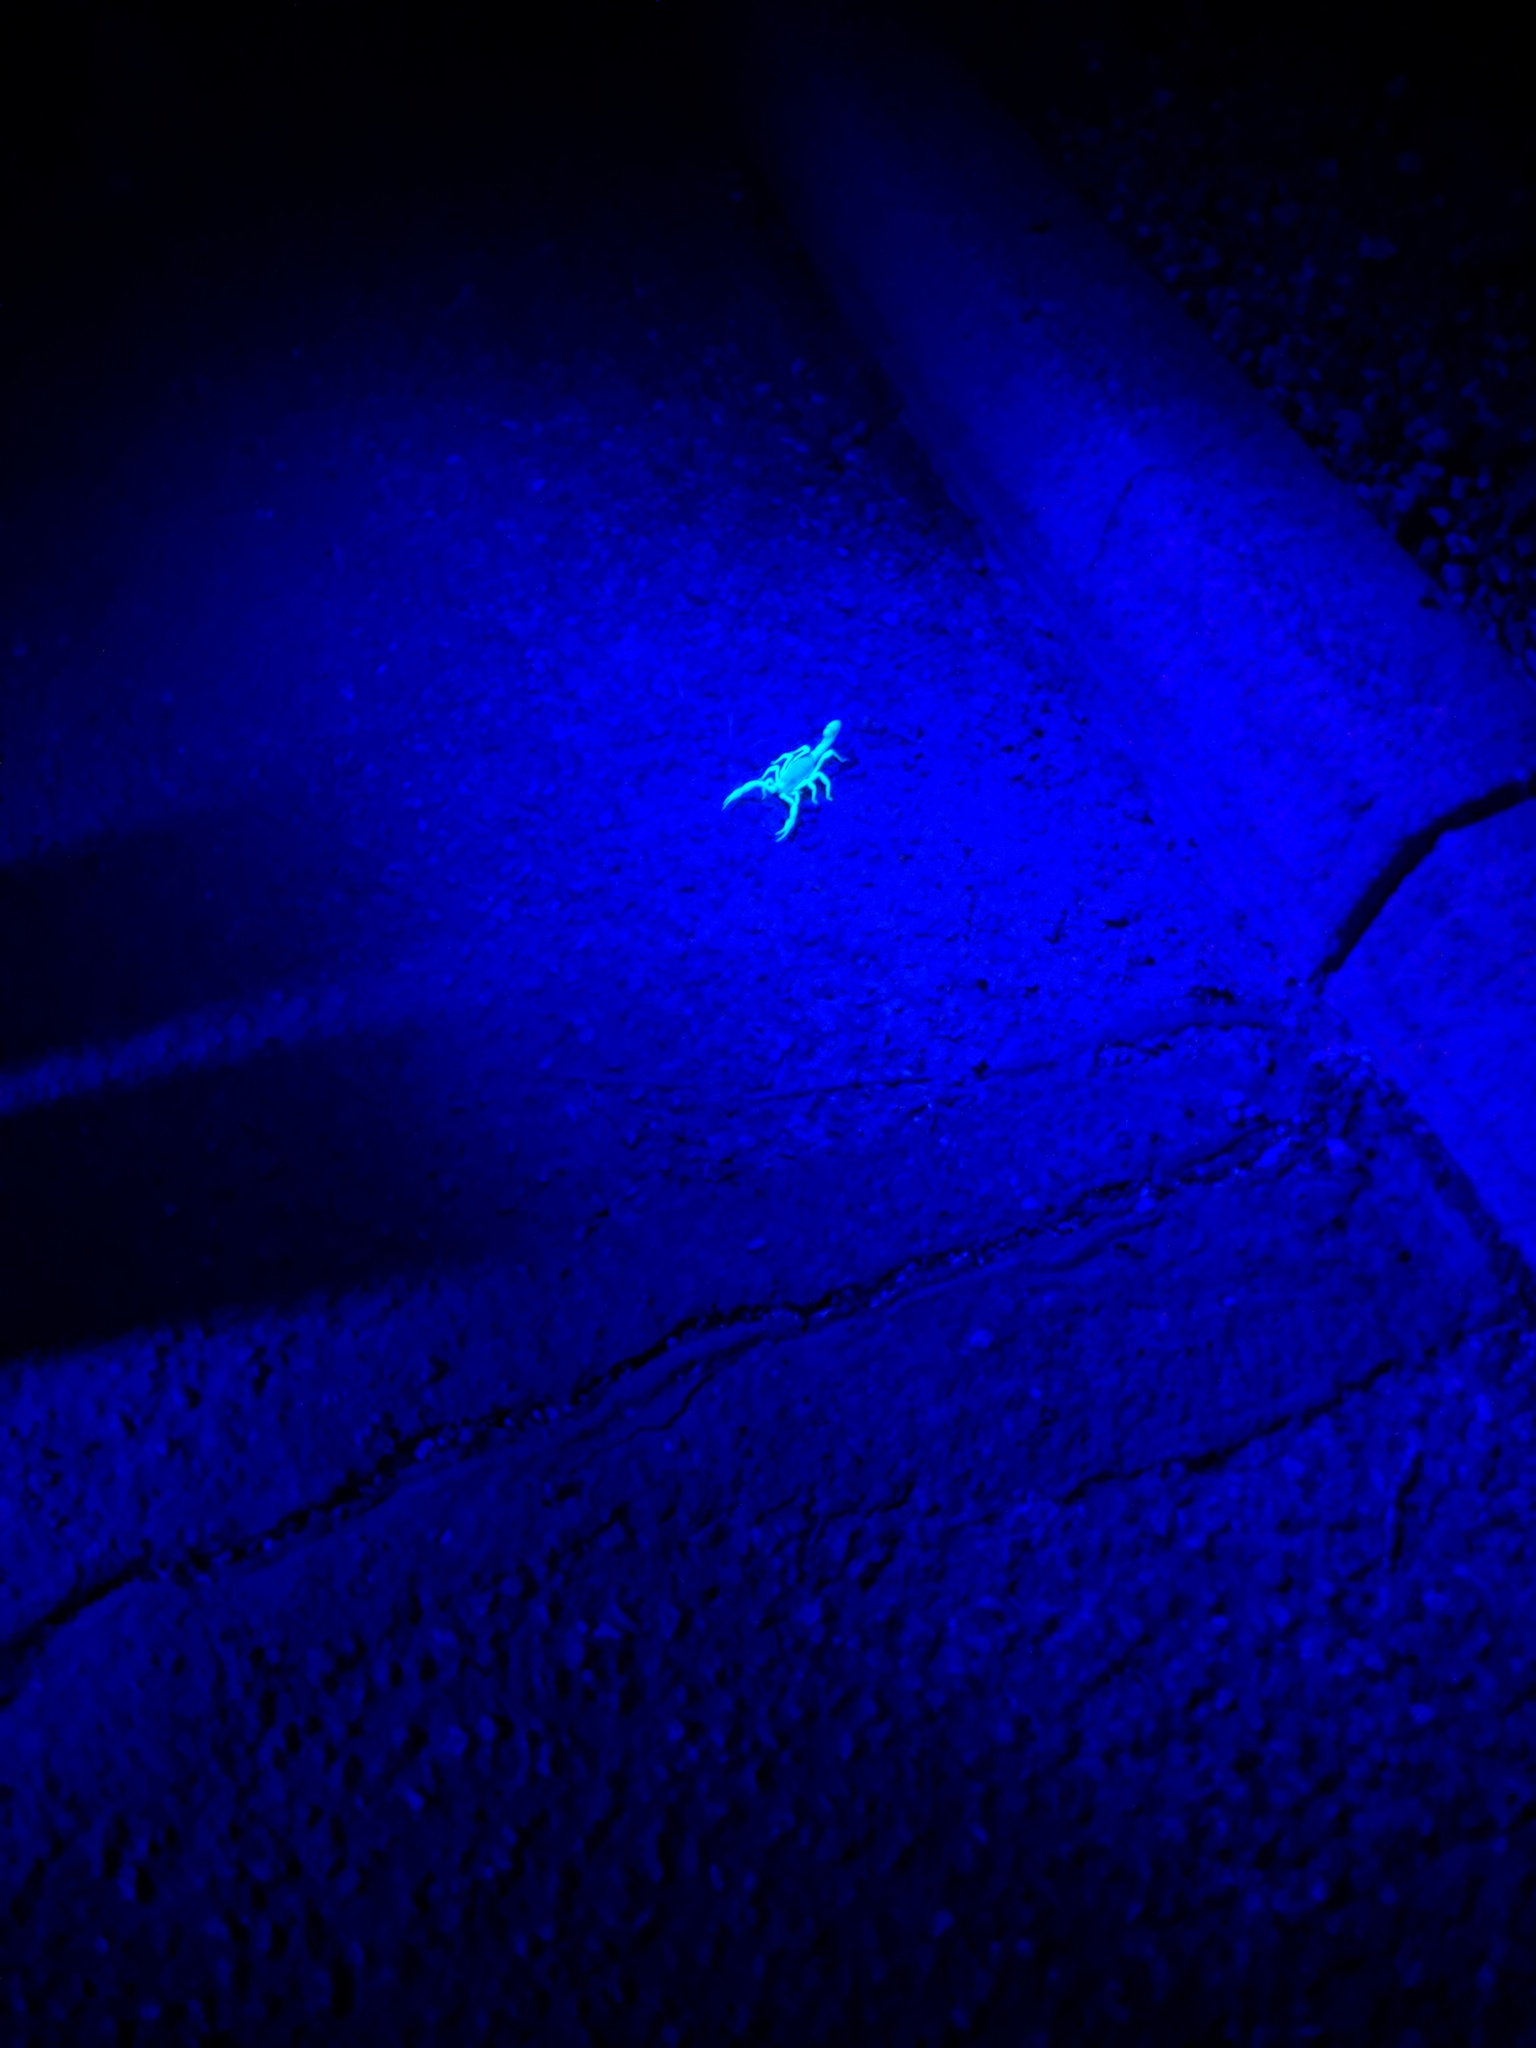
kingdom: Animalia
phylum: Arthropoda
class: Arachnida
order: Scorpiones
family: Hadruridae
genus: Hadrurus
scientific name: Hadrurus arizonensis
